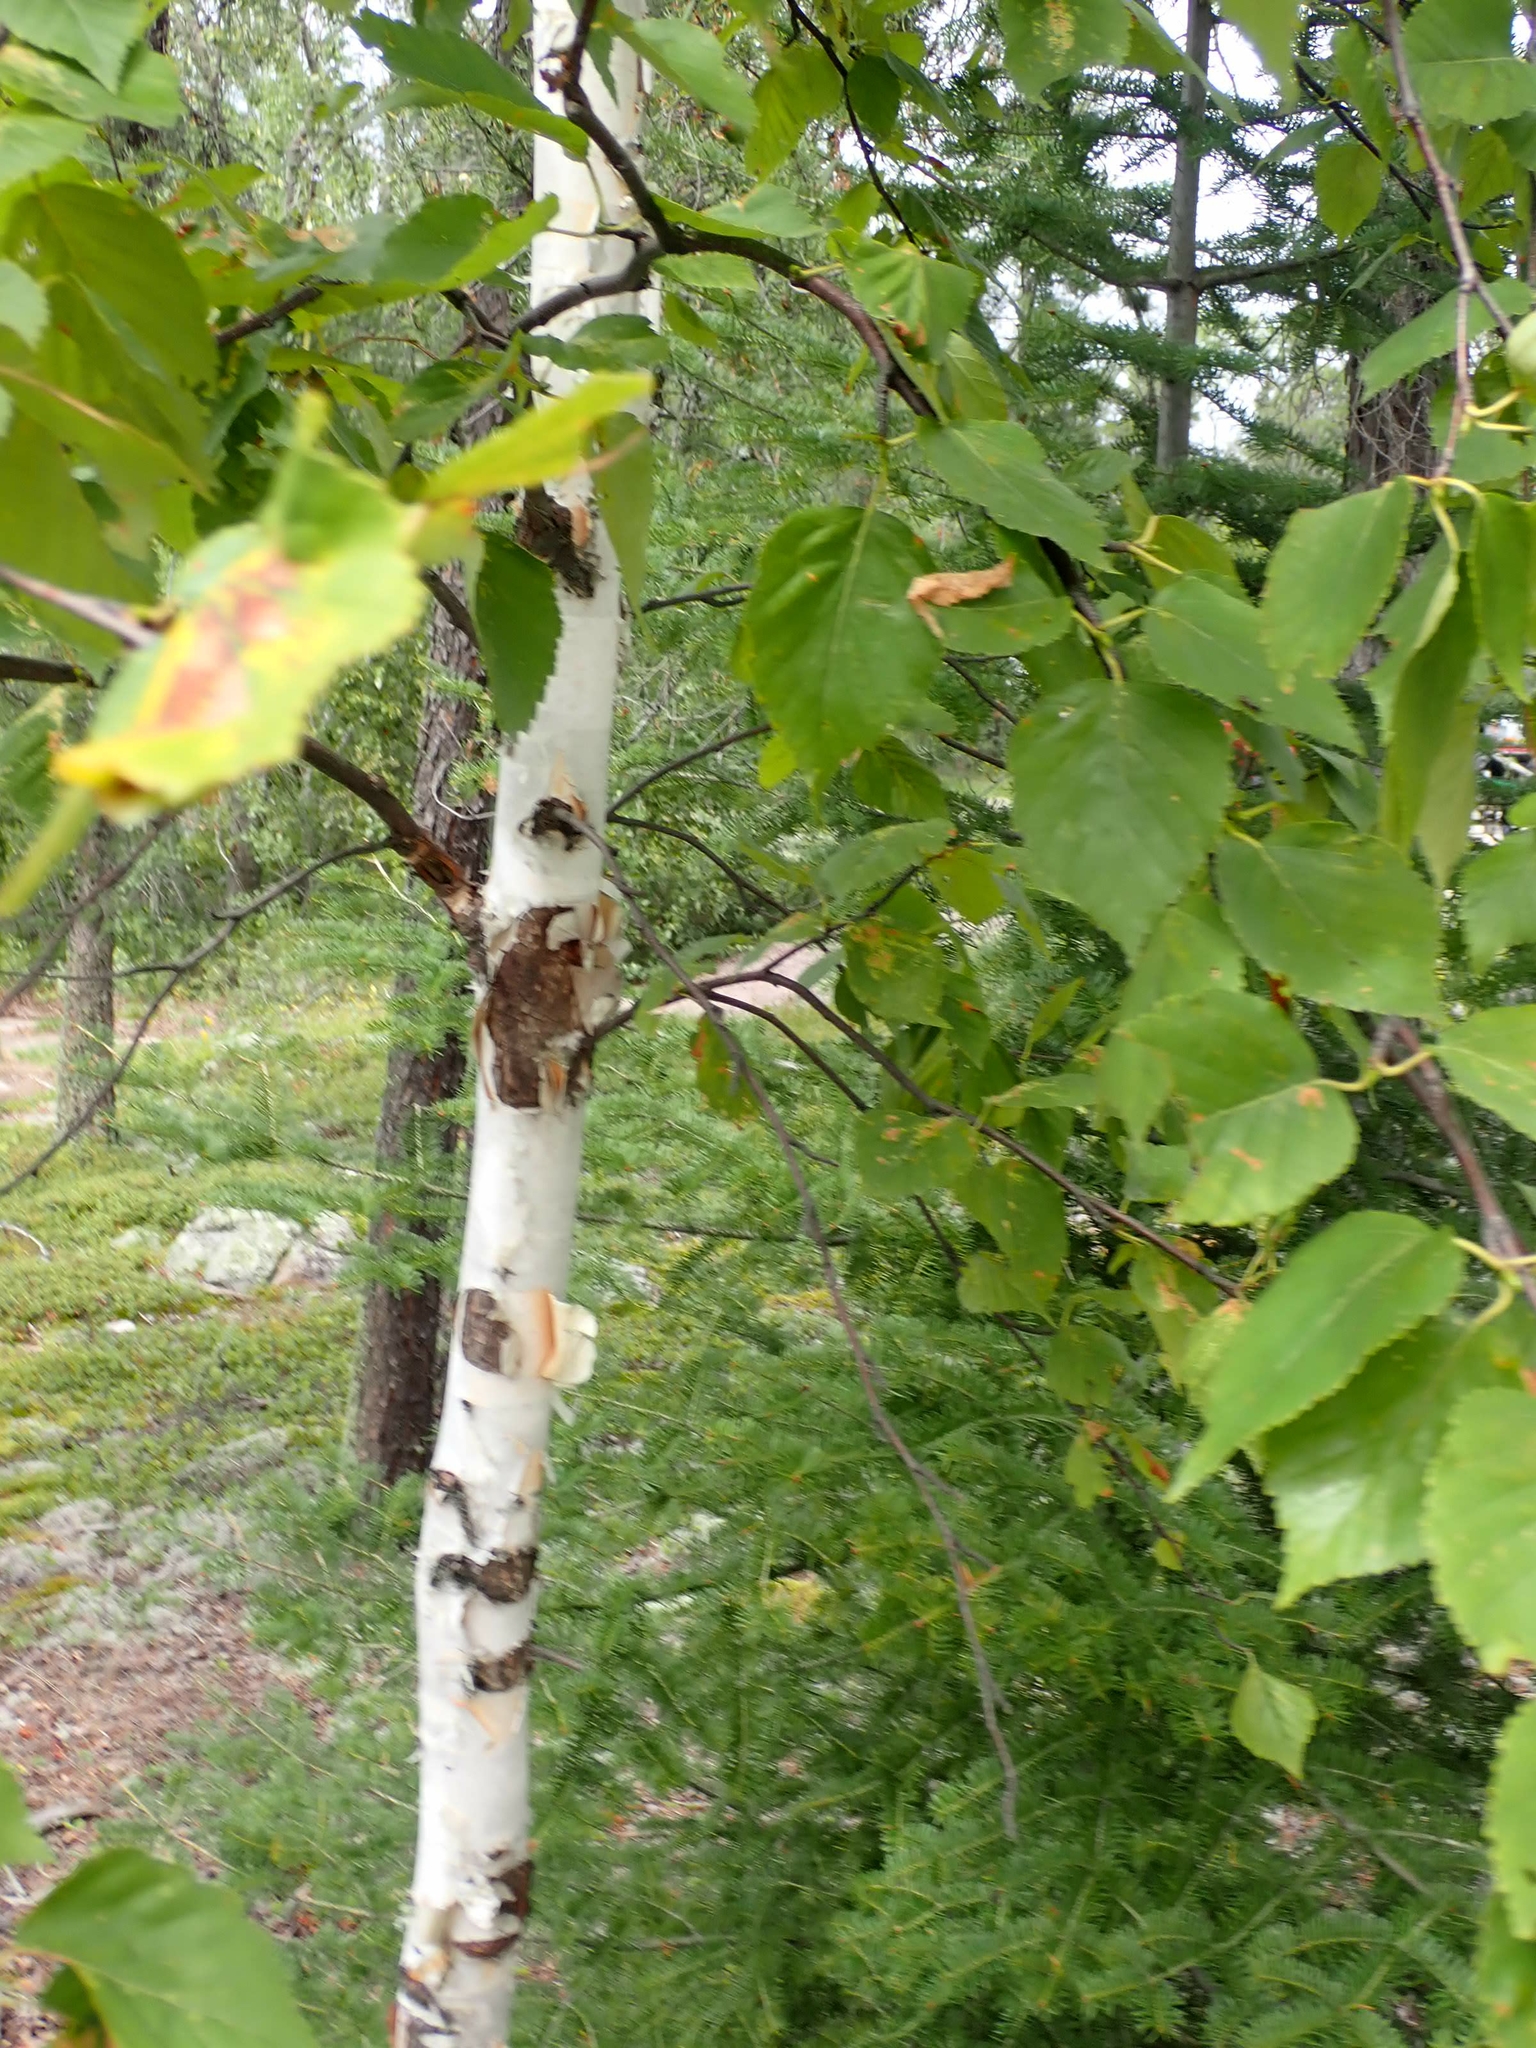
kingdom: Plantae
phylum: Tracheophyta
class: Magnoliopsida
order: Fagales
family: Betulaceae
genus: Betula
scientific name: Betula papyrifera
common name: Paper birch
